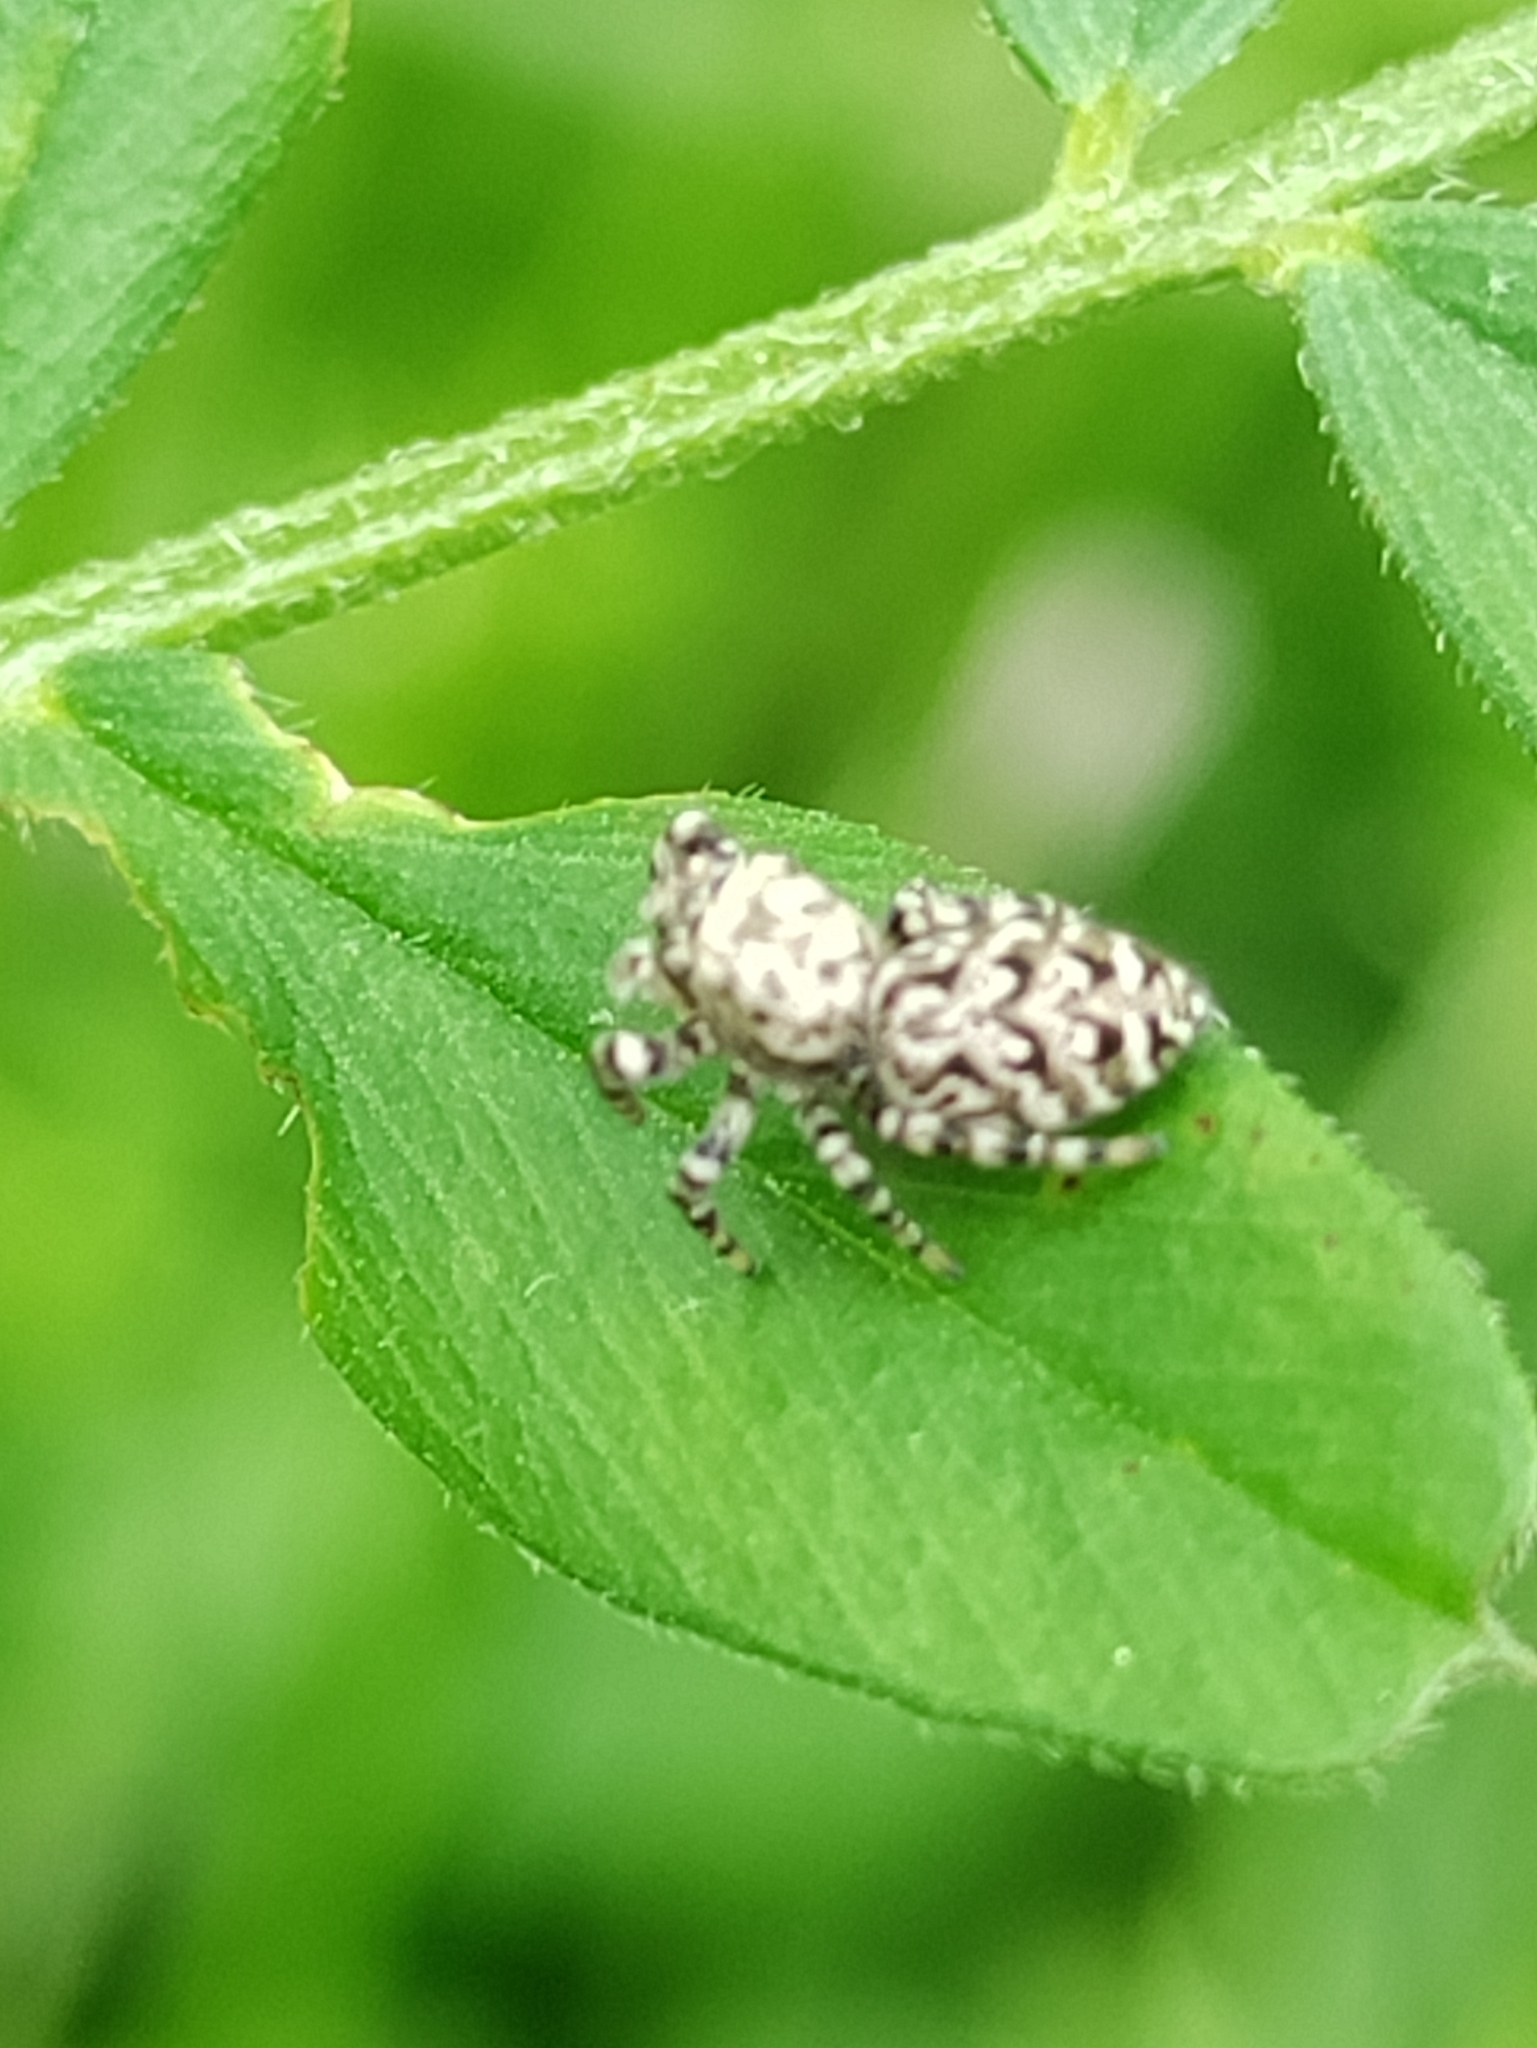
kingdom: Animalia
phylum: Arthropoda
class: Arachnida
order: Araneae
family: Salticidae
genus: Pelegrina
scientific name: Pelegrina galathea
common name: Jumping spiders
